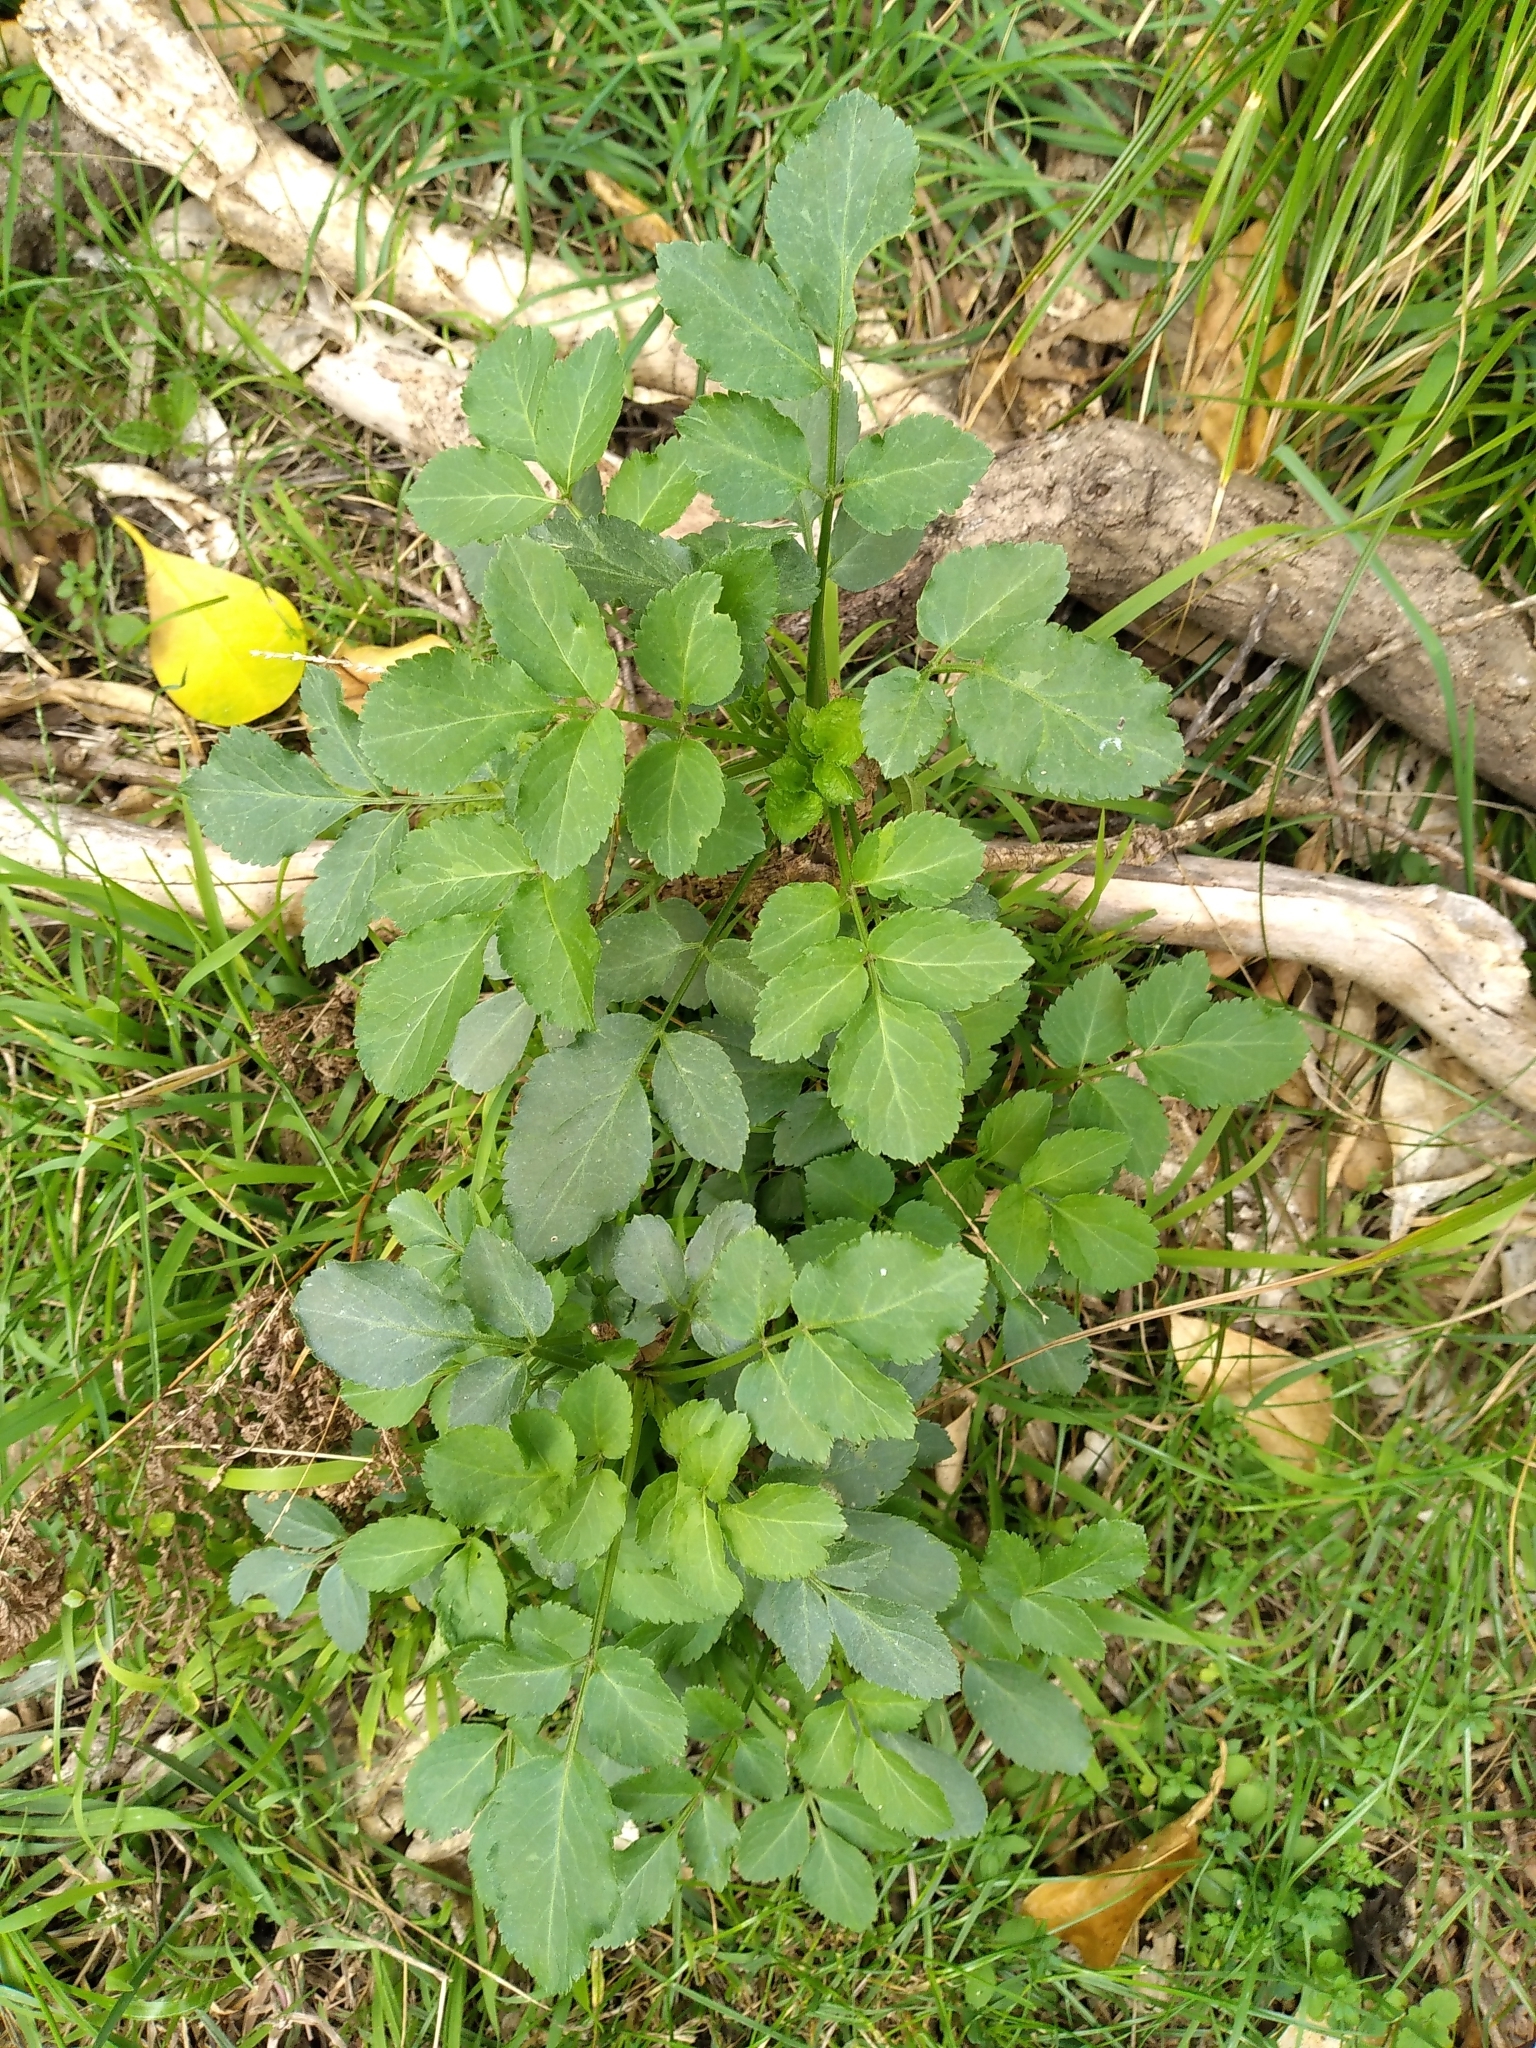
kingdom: Plantae
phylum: Tracheophyta
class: Magnoliopsida
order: Dipsacales
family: Viburnaceae
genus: Sambucus
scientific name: Sambucus nigra
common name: Elder
